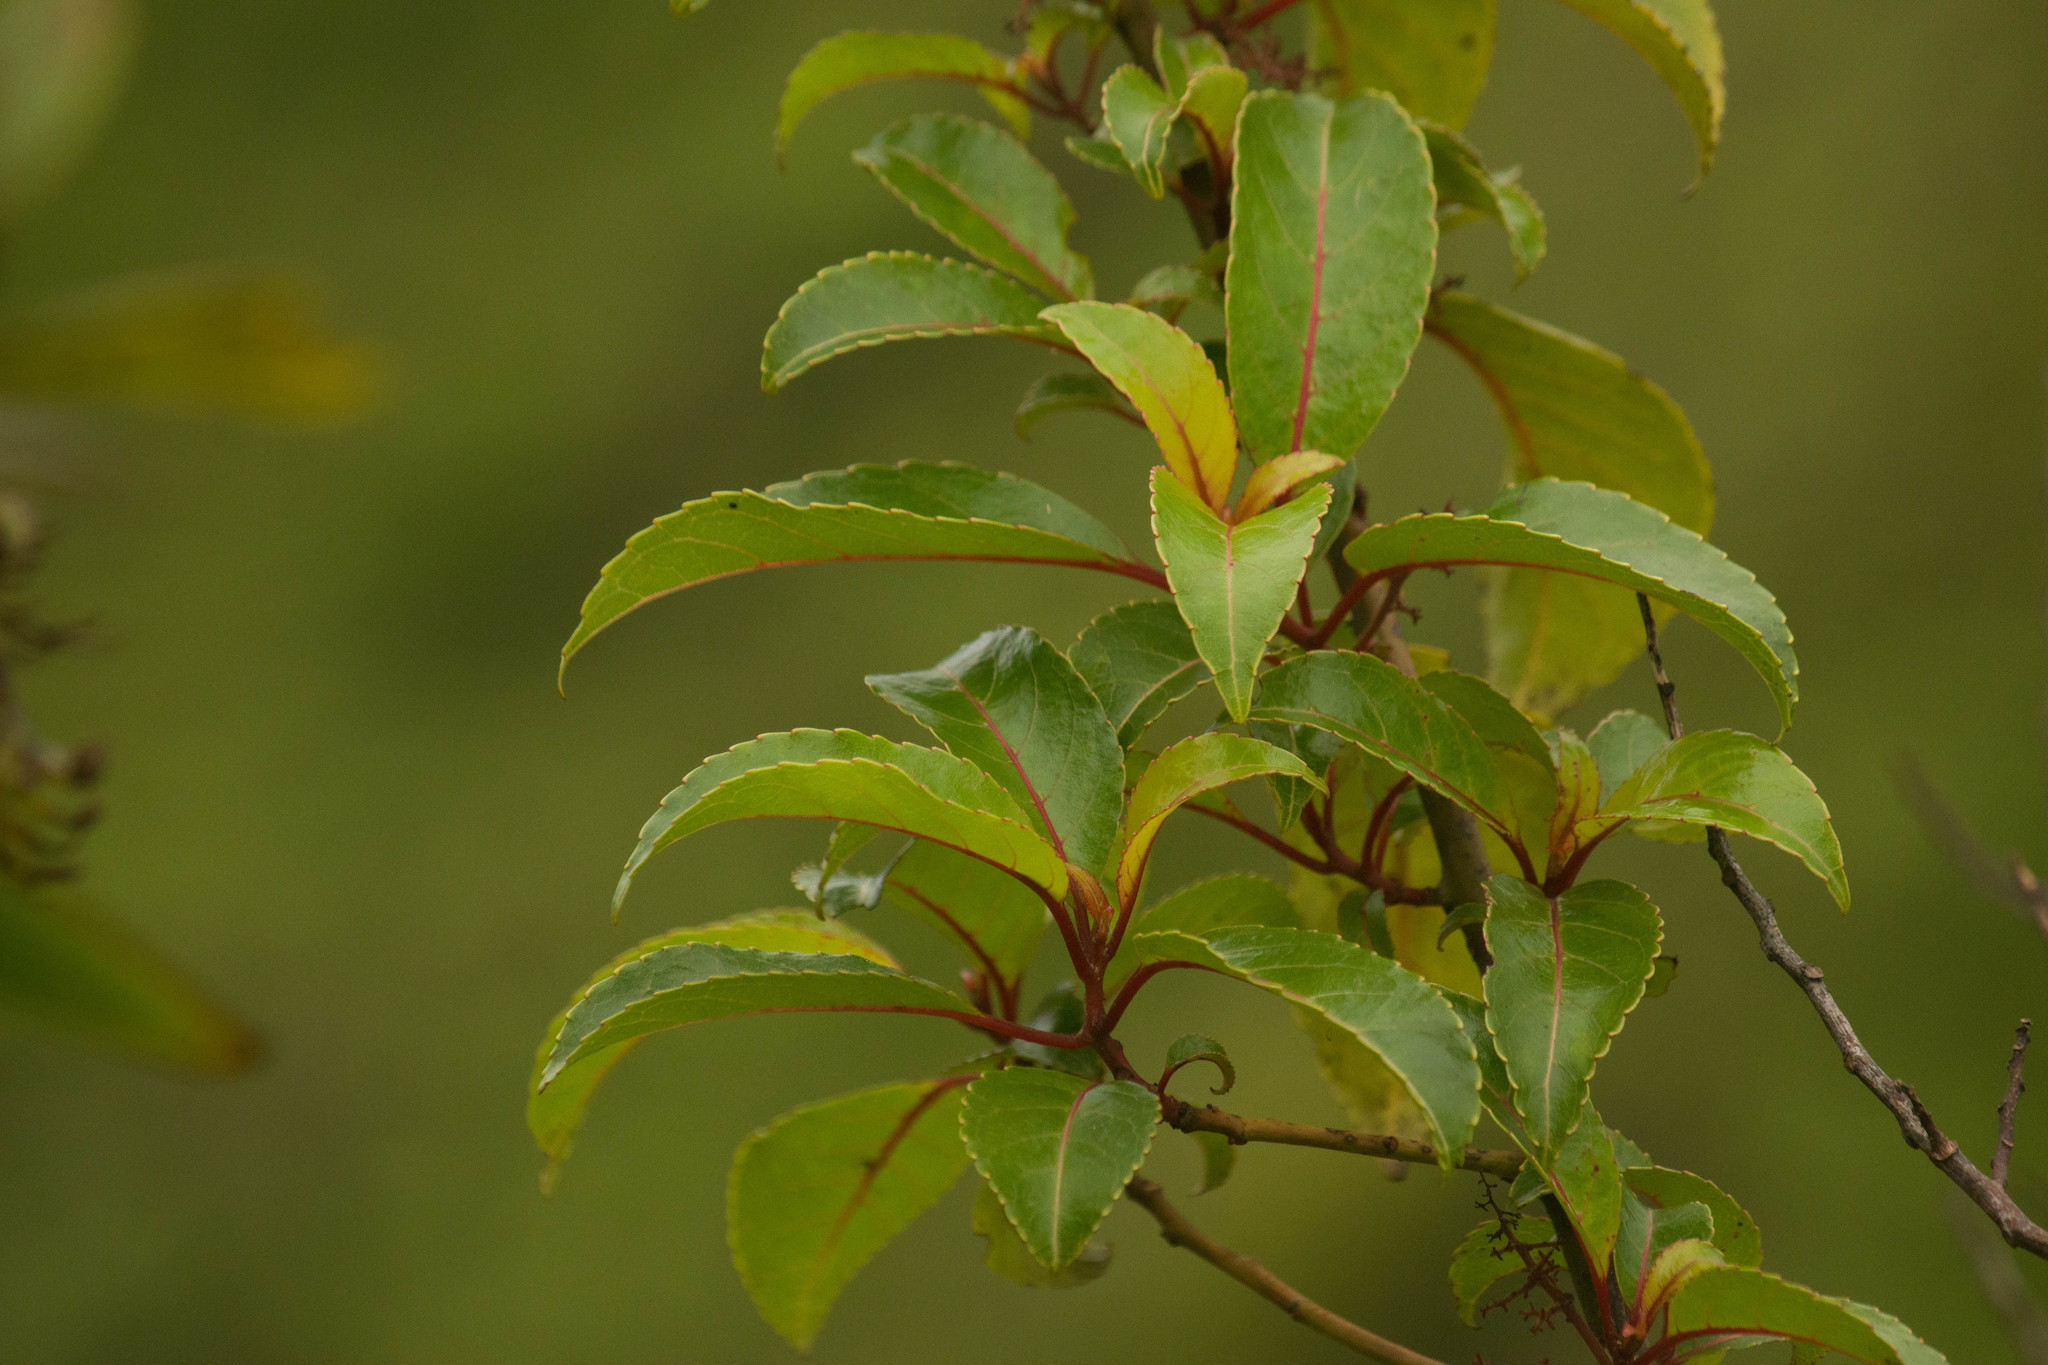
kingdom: Plantae
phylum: Tracheophyta
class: Magnoliopsida
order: Huerteales
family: Dipentodontaceae
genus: Perrottetia
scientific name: Perrottetia sandwicensis
